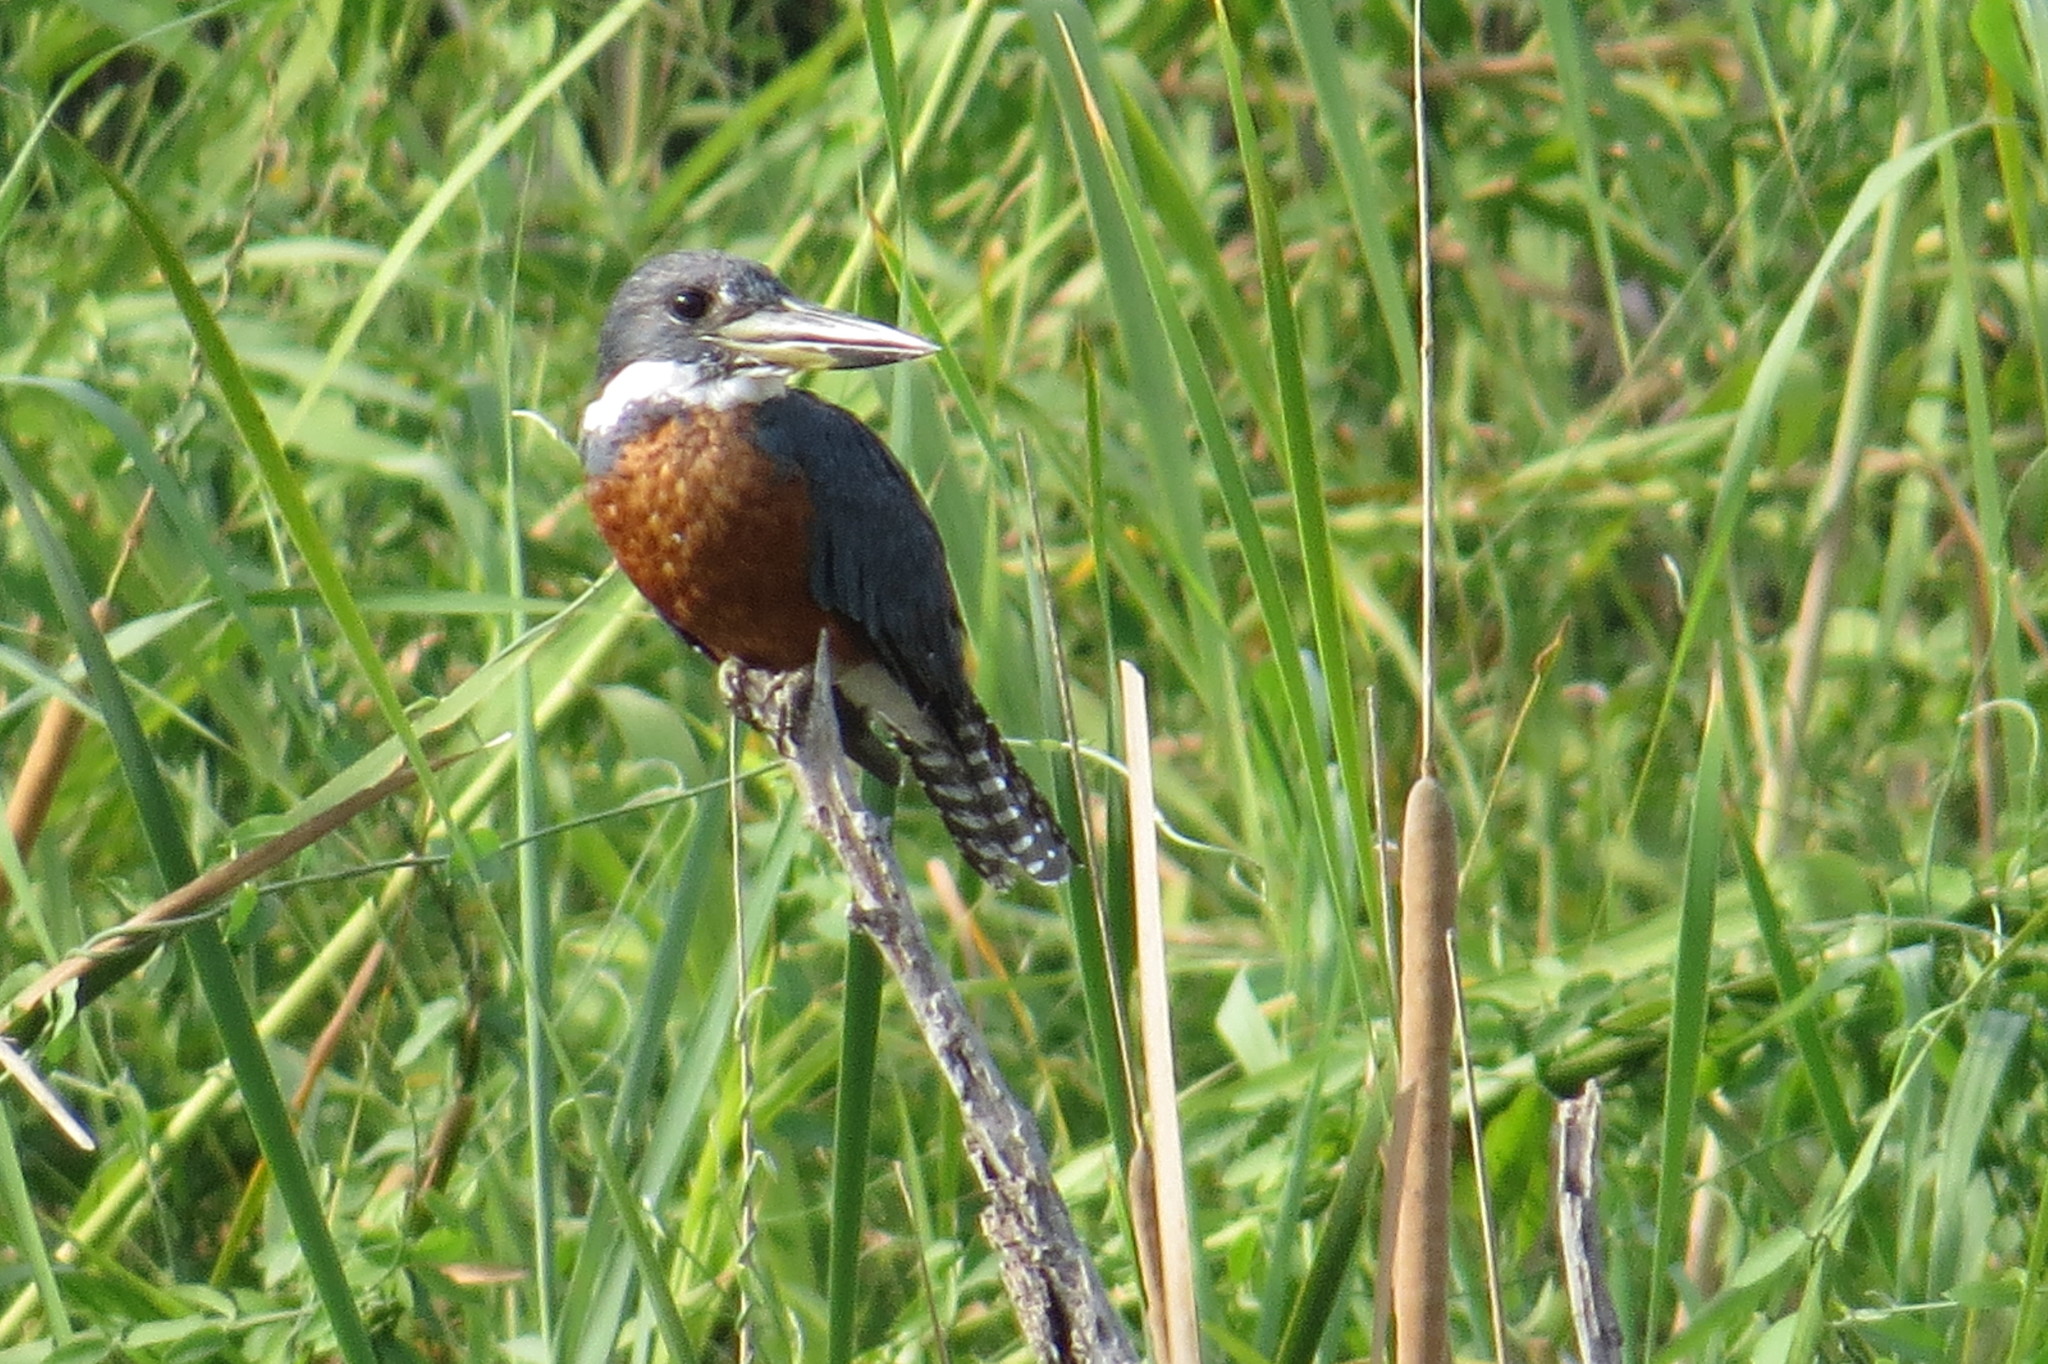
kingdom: Animalia
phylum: Chordata
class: Aves
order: Coraciiformes
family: Alcedinidae
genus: Megaceryle
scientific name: Megaceryle torquata
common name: Ringed kingfisher
